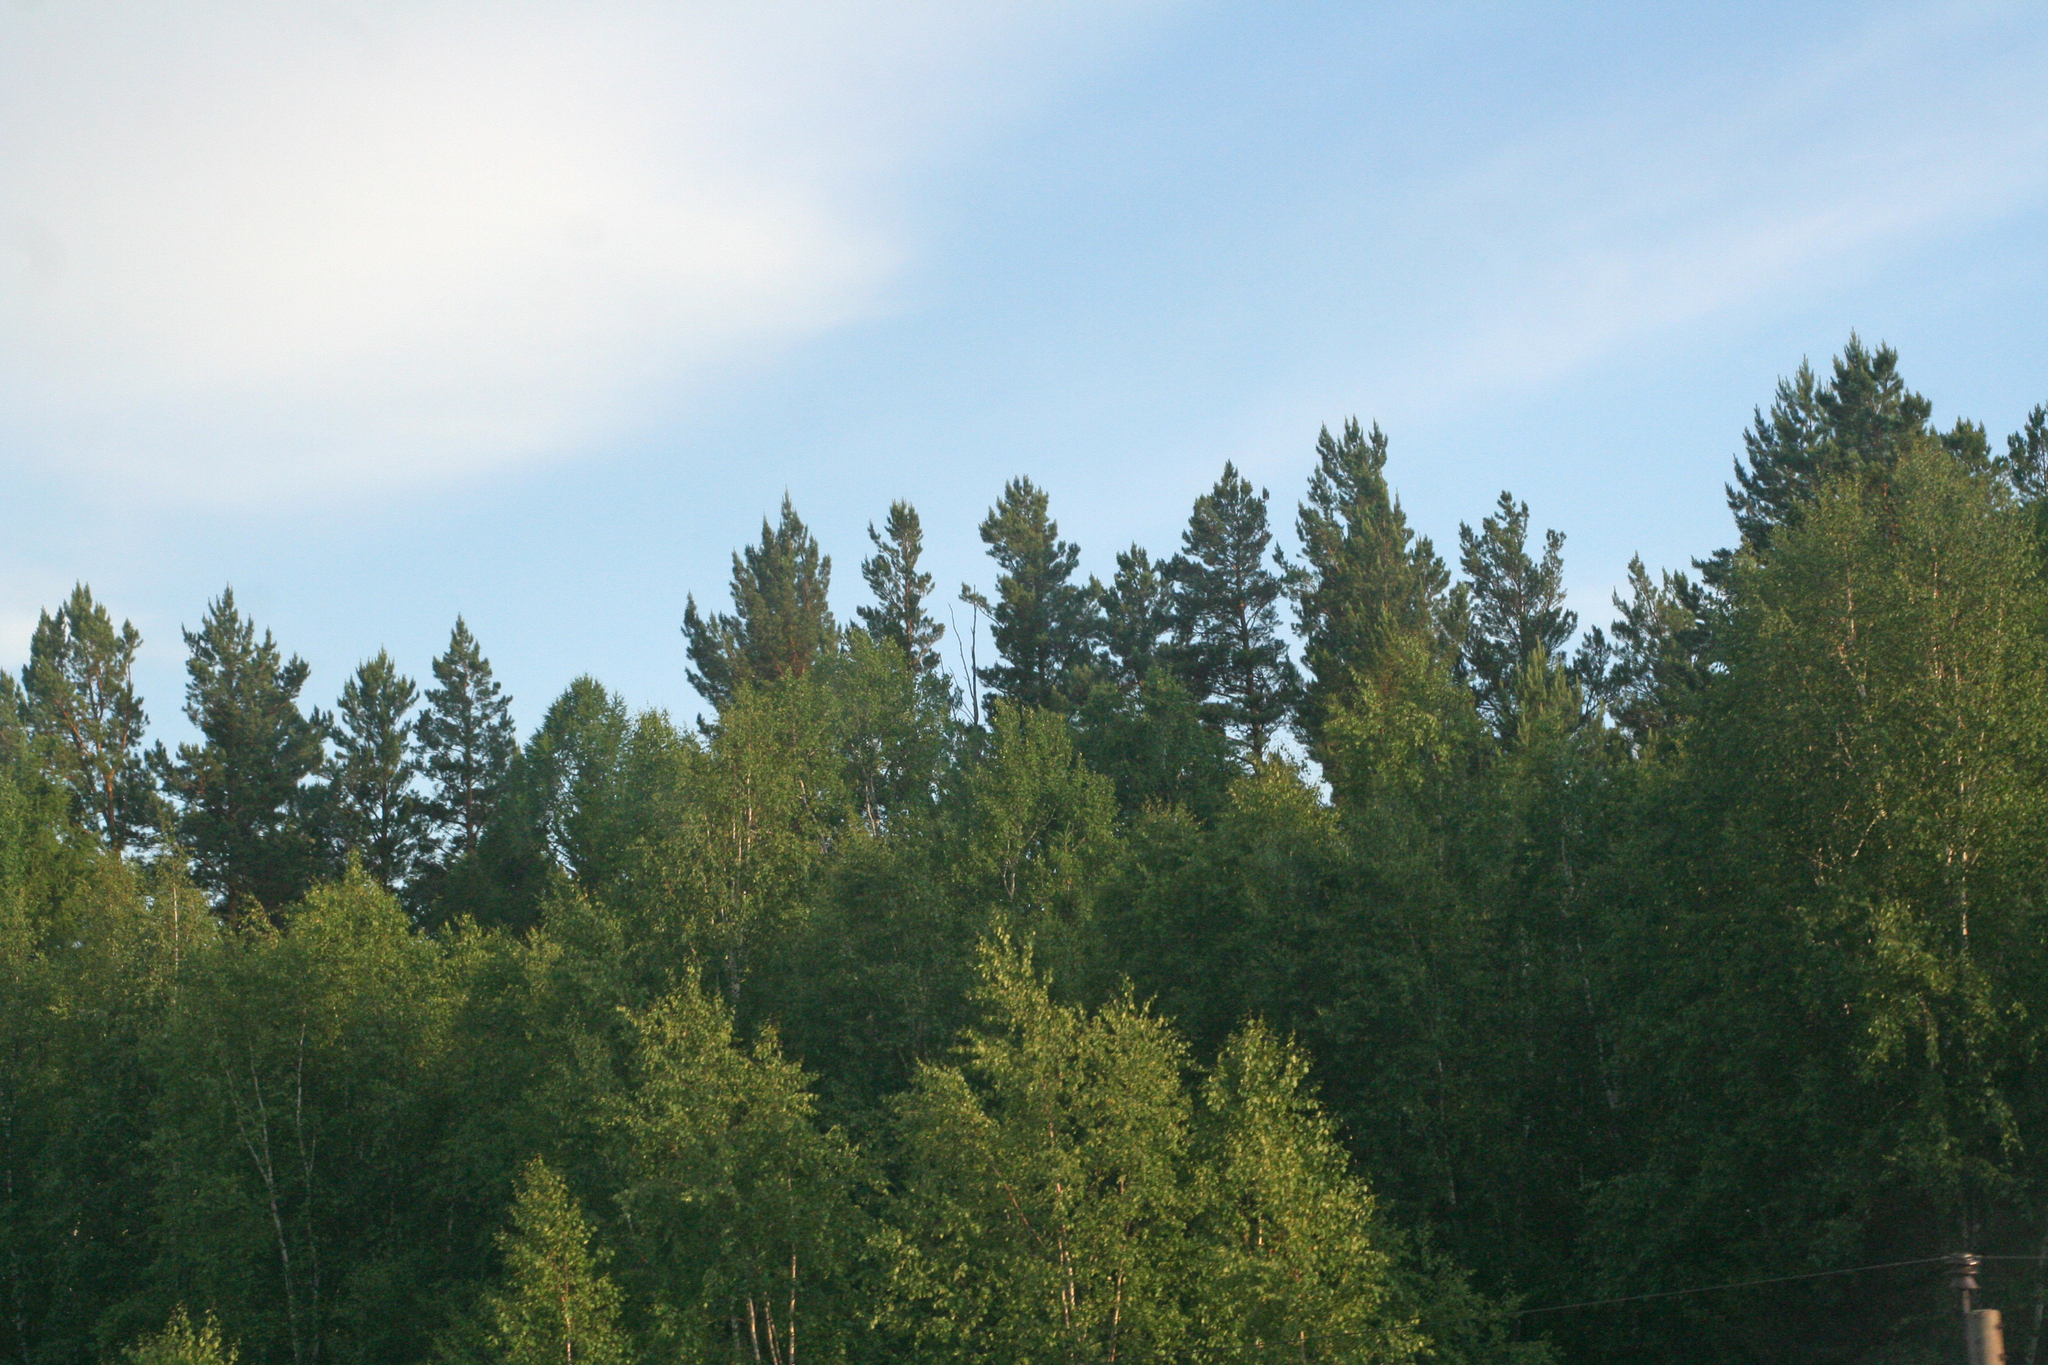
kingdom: Plantae
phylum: Tracheophyta
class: Pinopsida
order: Pinales
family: Pinaceae
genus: Pinus
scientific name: Pinus sylvestris
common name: Scots pine
